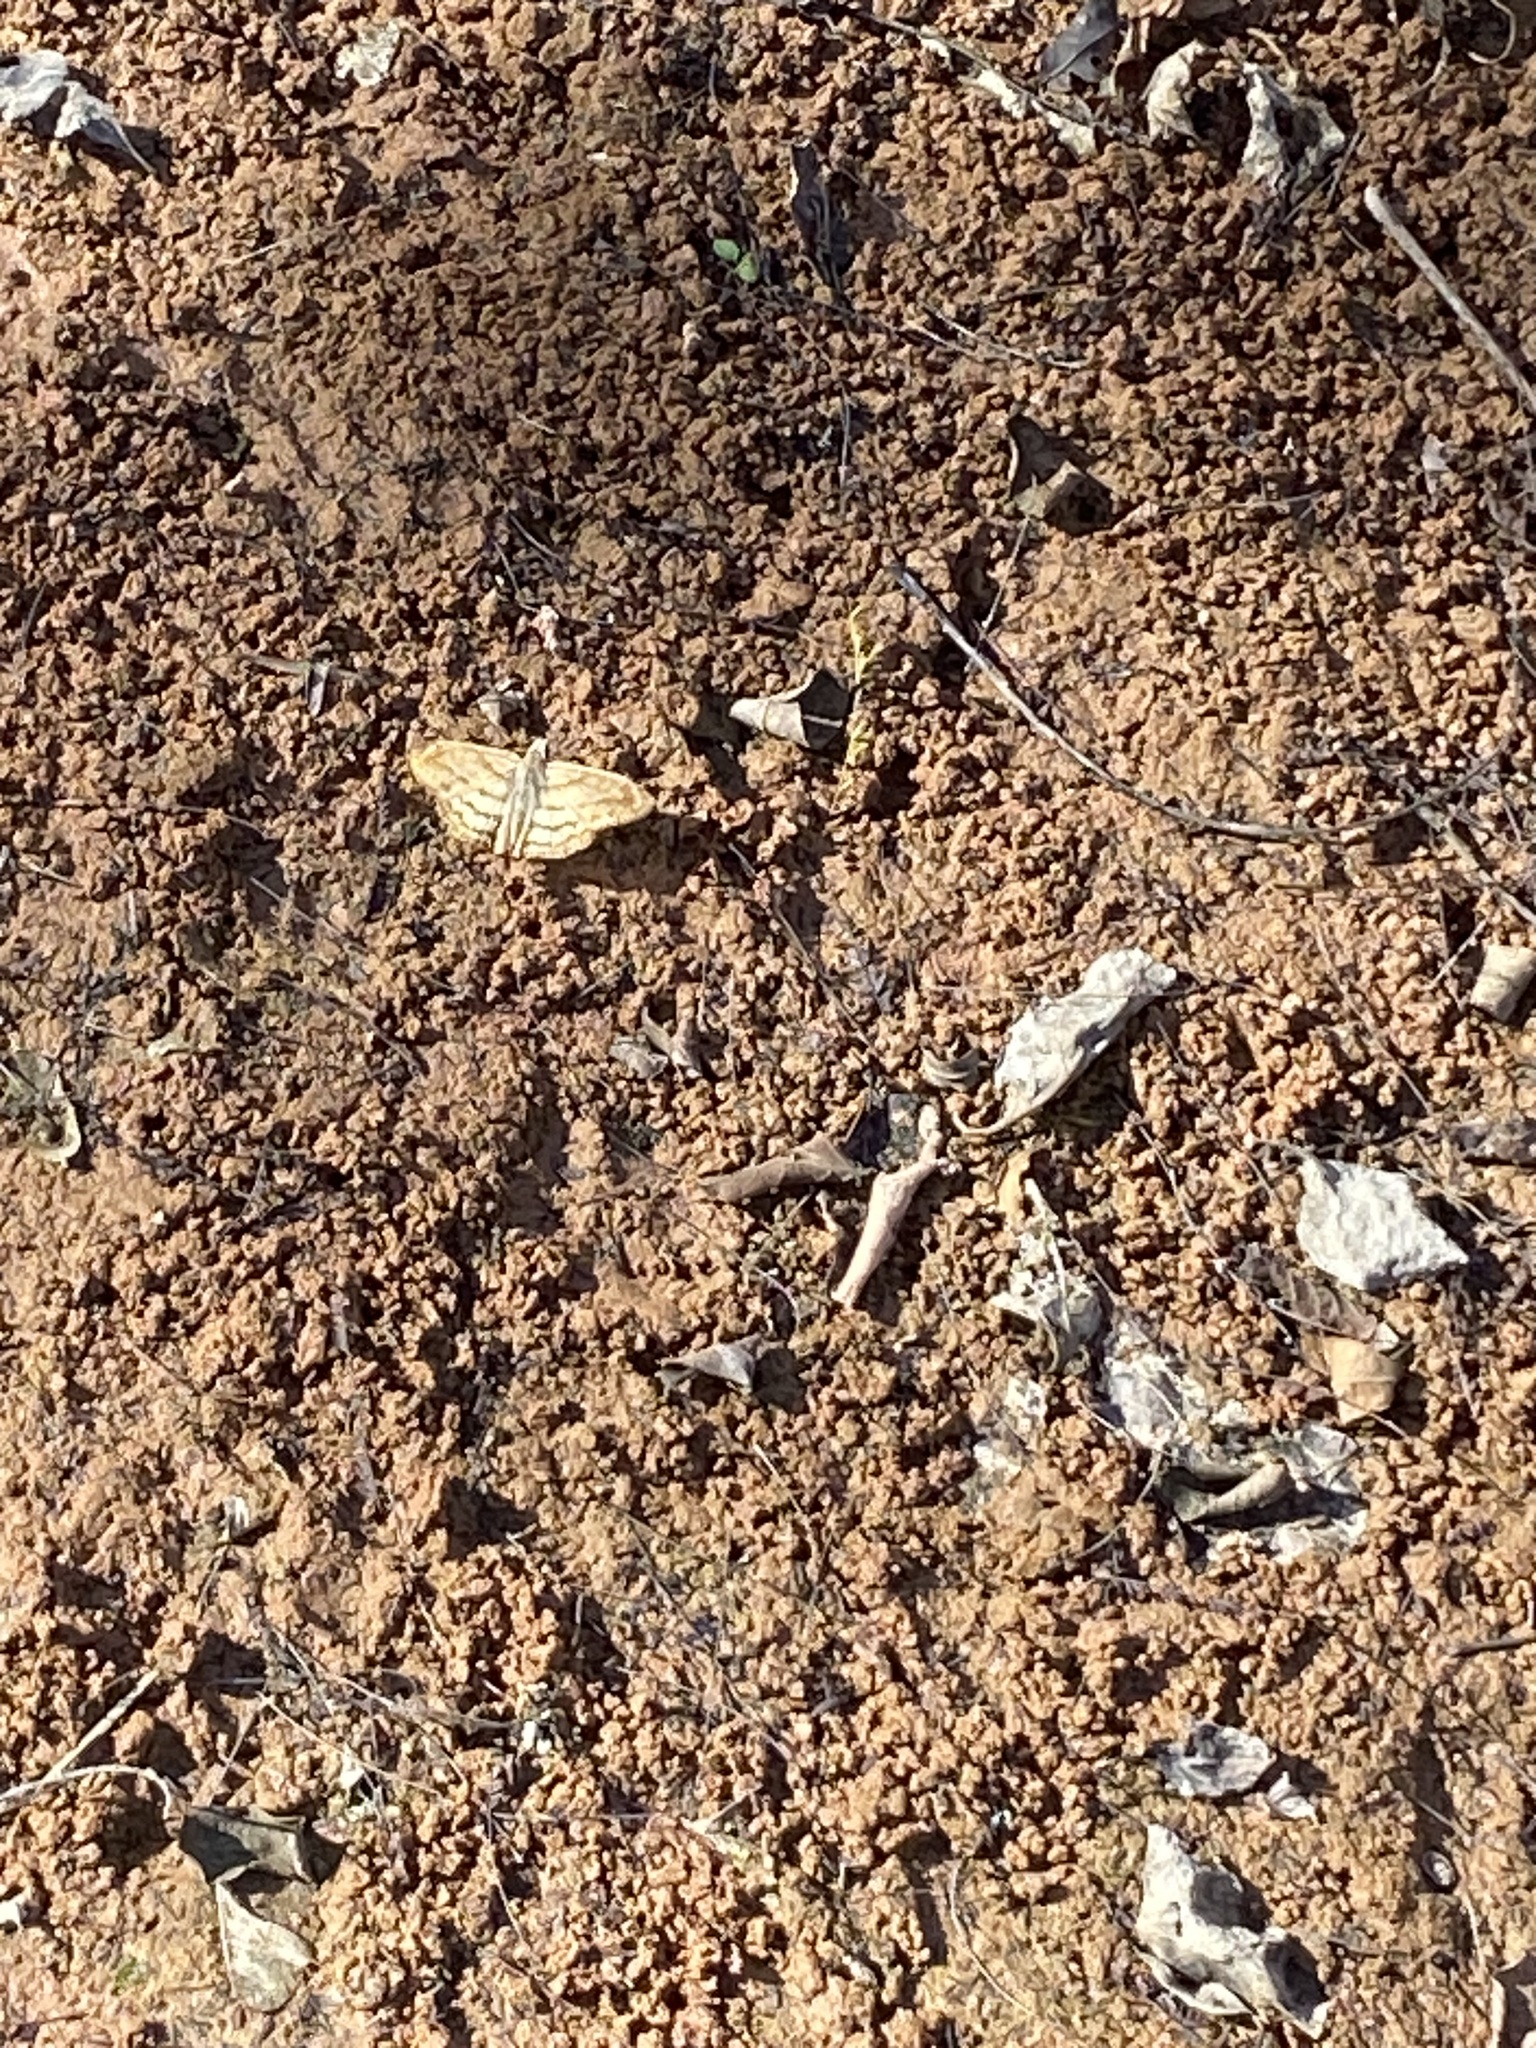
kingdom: Animalia
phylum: Arthropoda
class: Insecta
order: Lepidoptera
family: Hesperiidae
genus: Timochares
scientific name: Timochares trifasciata
